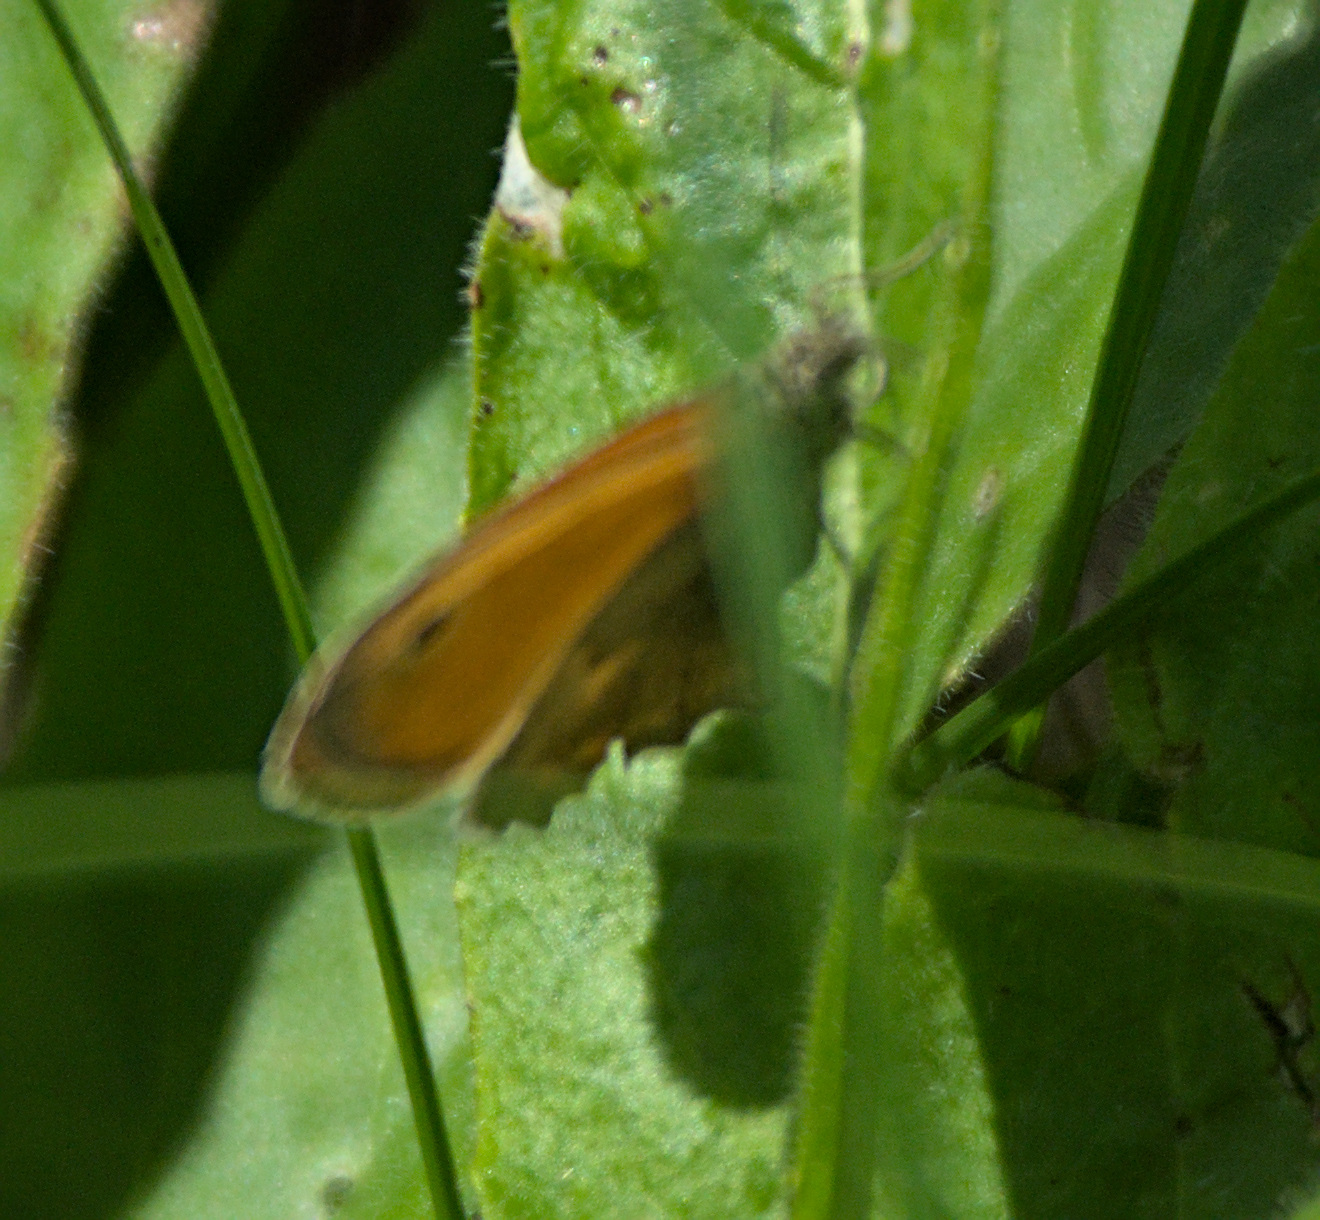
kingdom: Animalia
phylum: Arthropoda
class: Insecta
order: Lepidoptera
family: Nymphalidae
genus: Coenonympha
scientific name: Coenonympha pamphilus
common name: Small heath
